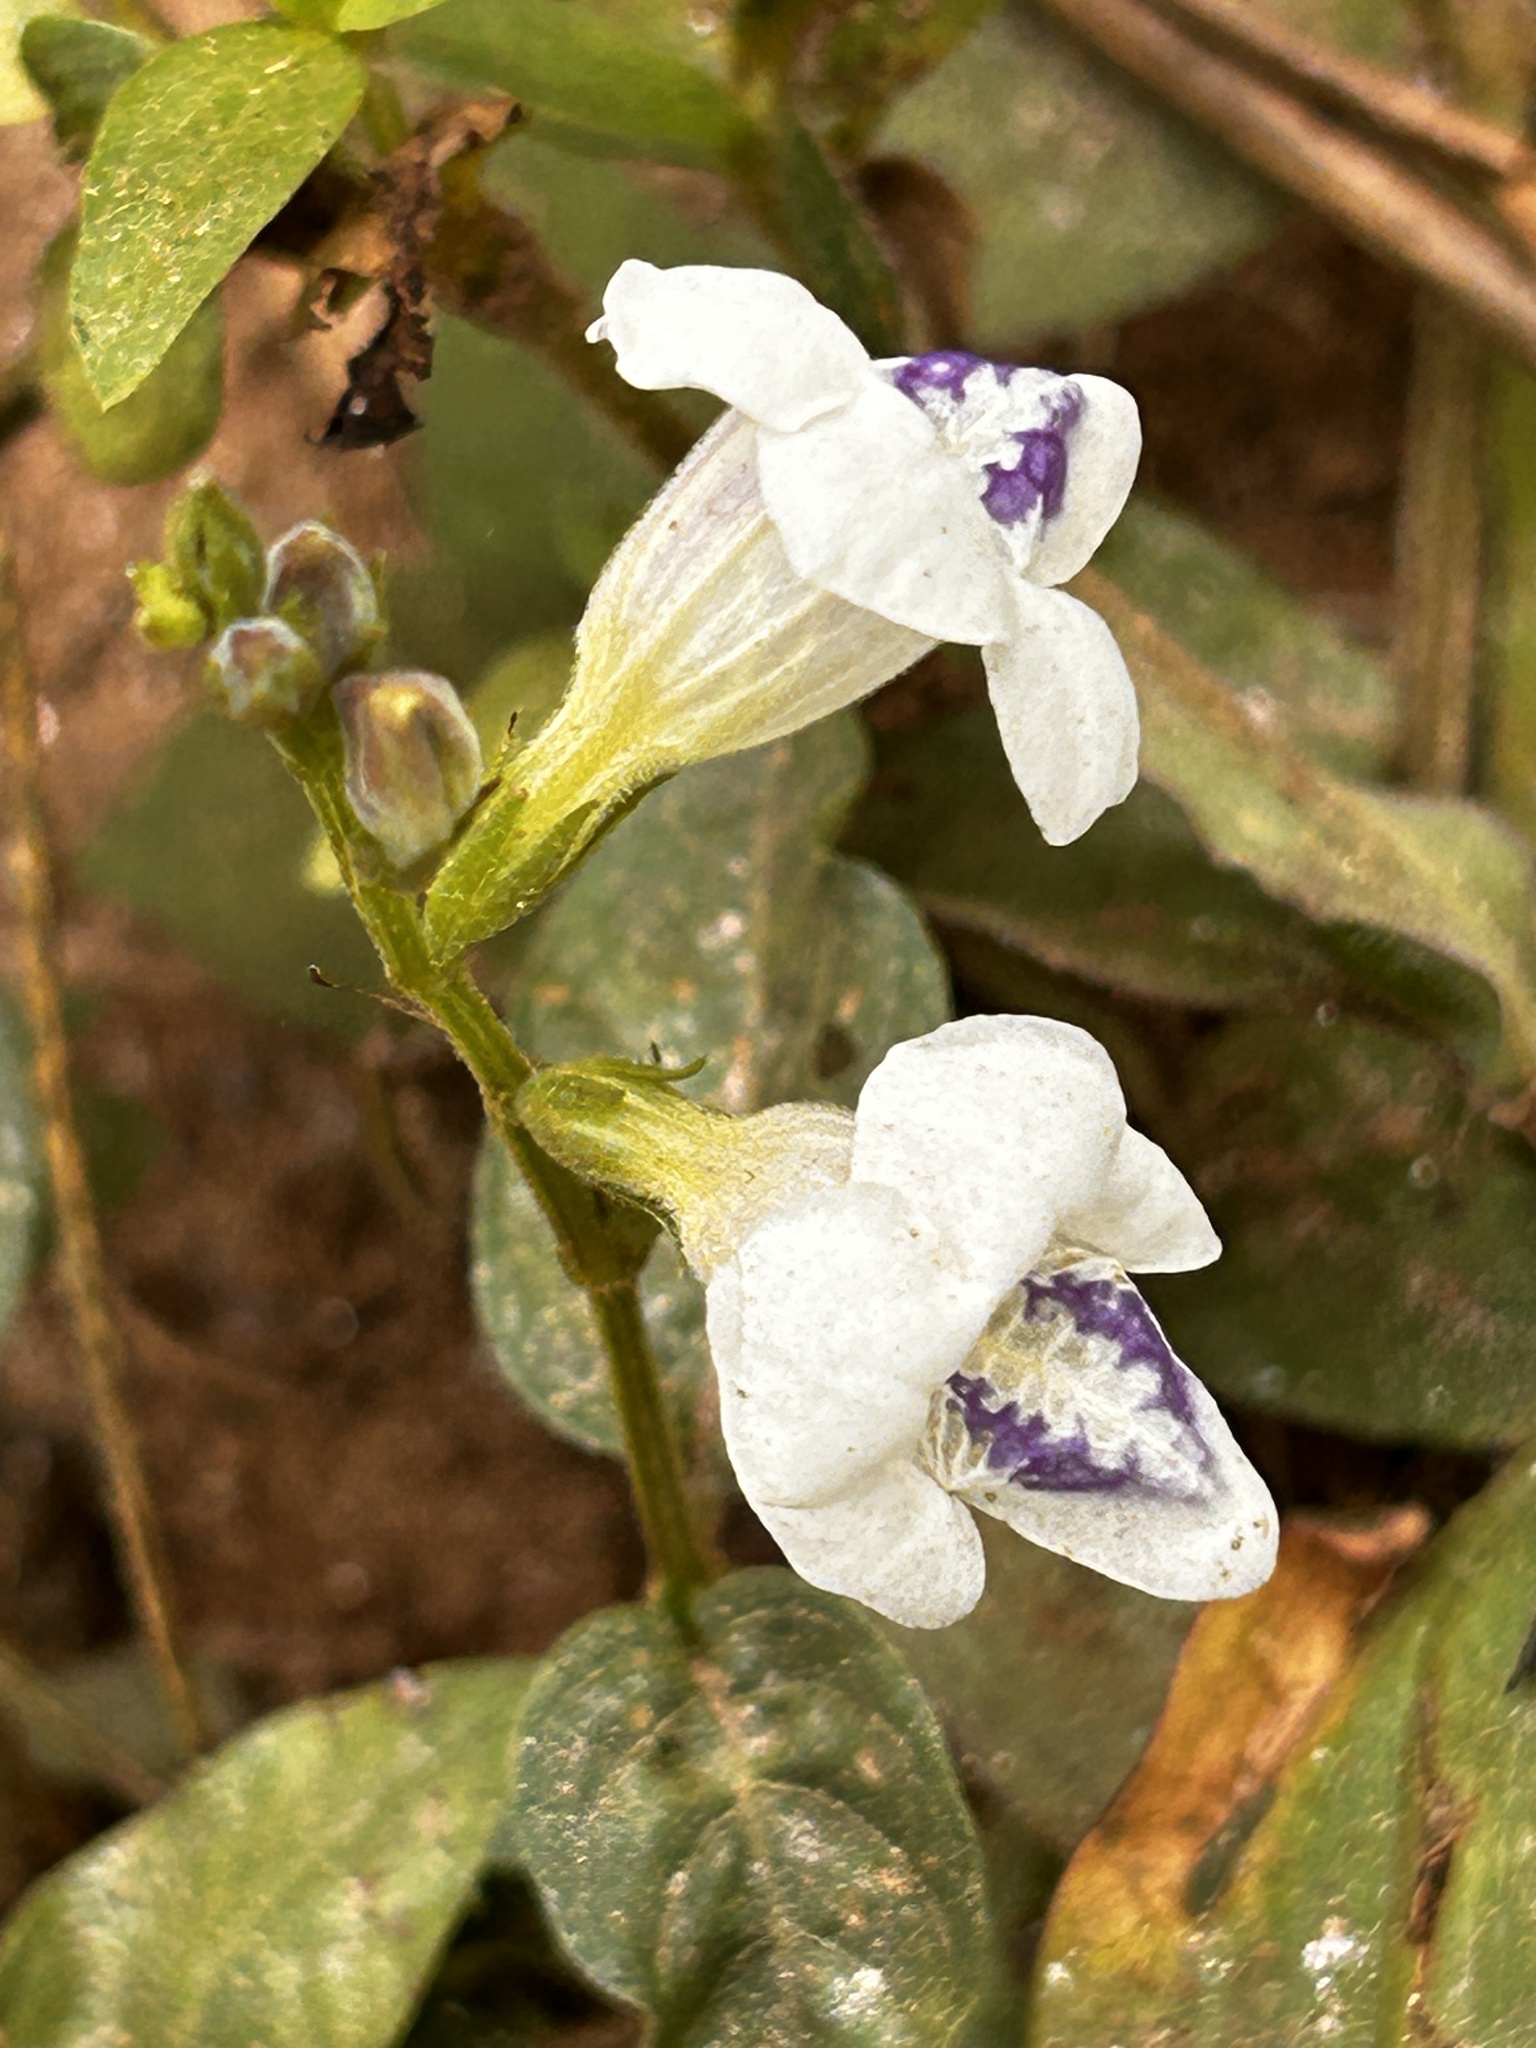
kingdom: Plantae
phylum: Tracheophyta
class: Magnoliopsida
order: Lamiales
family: Acanthaceae
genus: Asystasia
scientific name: Asystasia intrusa
